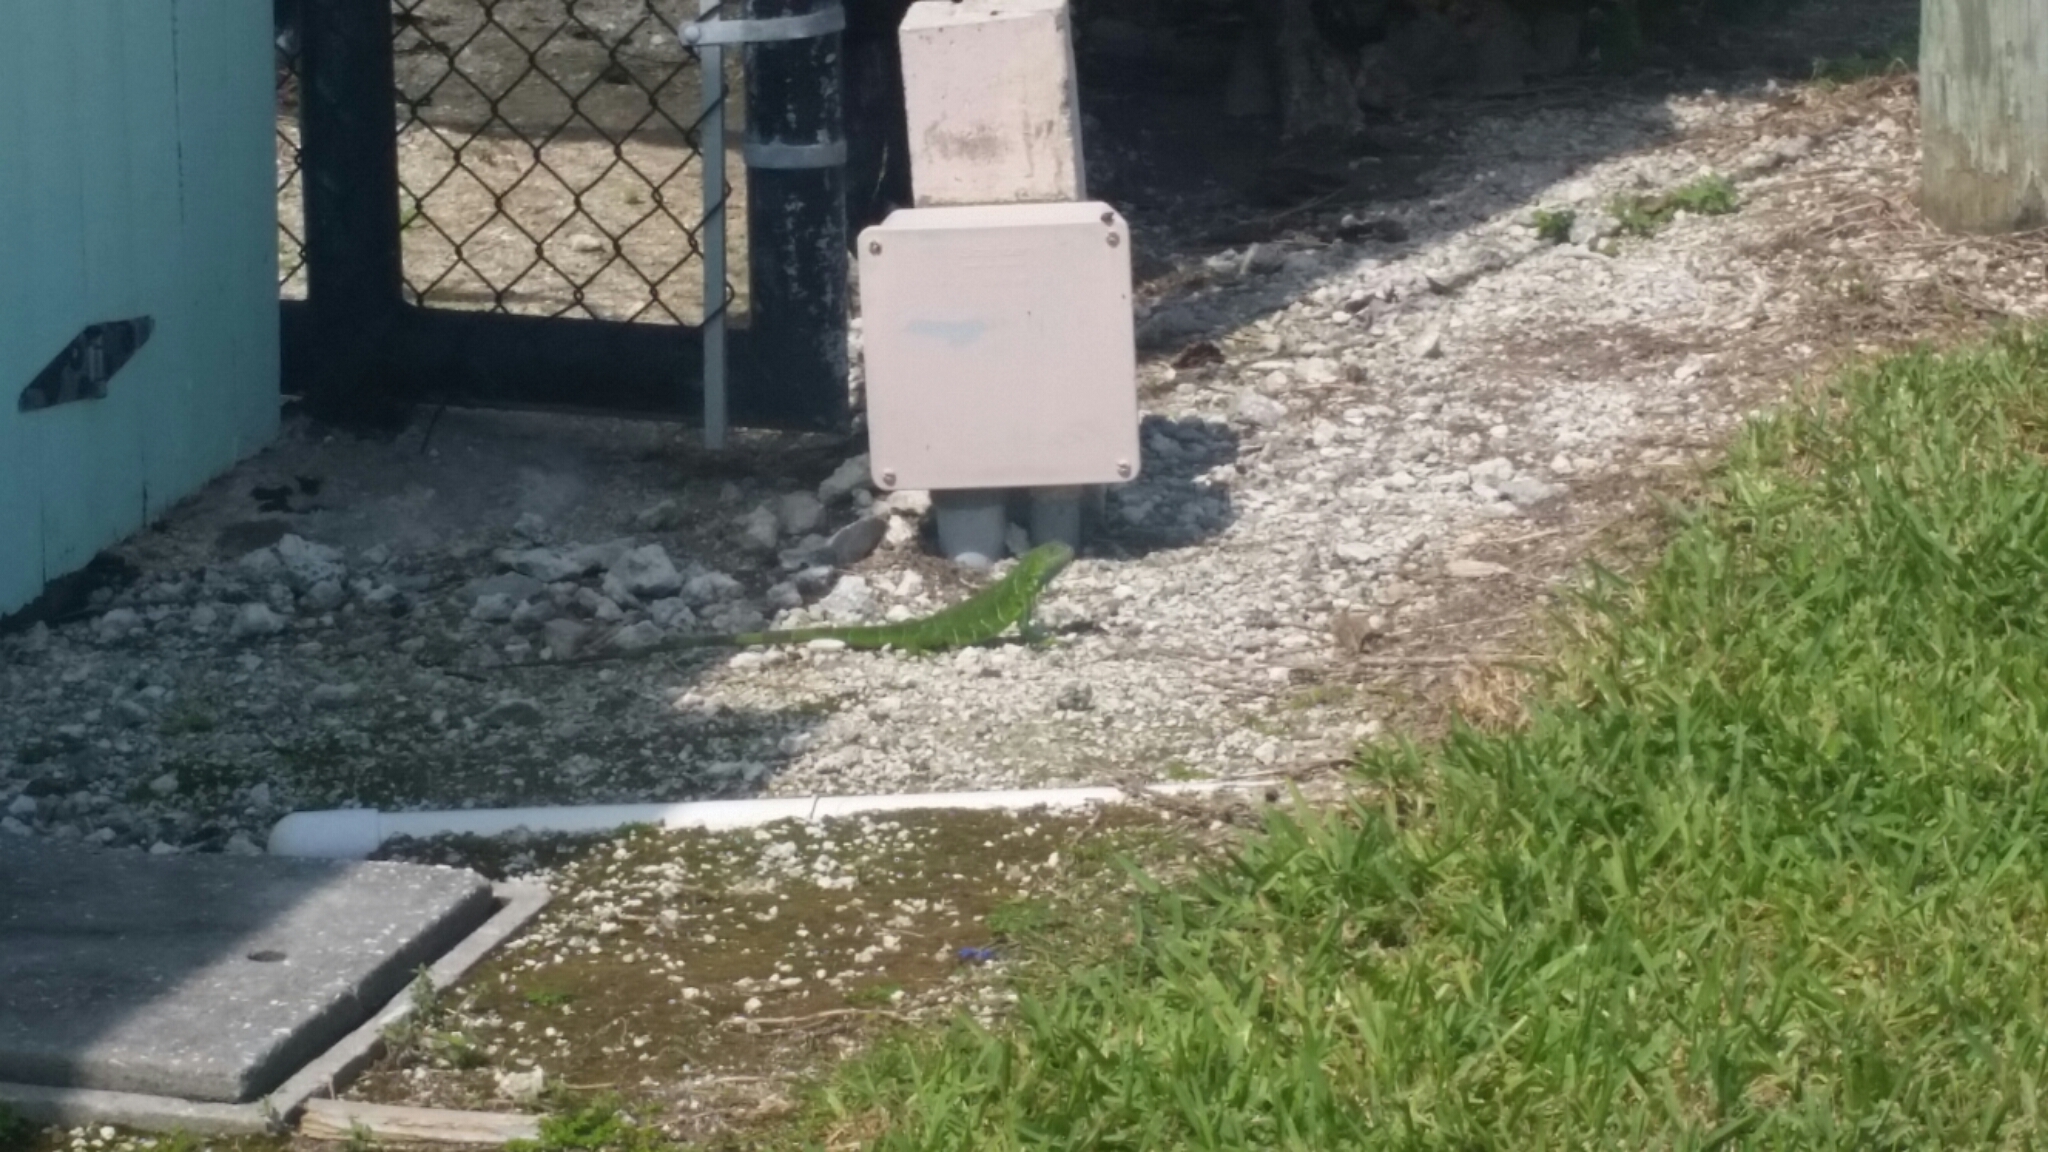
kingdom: Animalia
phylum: Chordata
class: Squamata
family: Iguanidae
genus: Iguana
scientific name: Iguana iguana
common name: Green iguana
